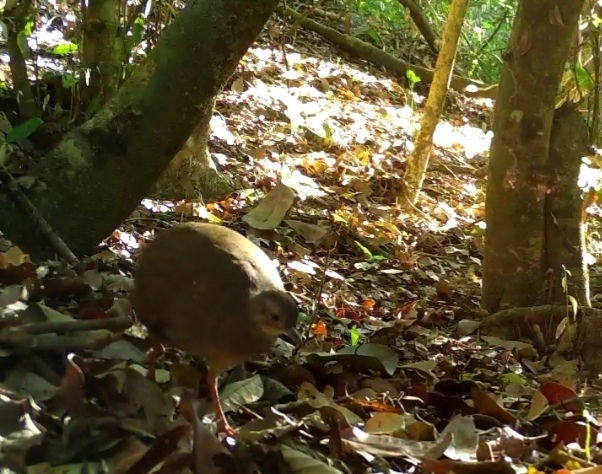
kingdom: Animalia
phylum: Chordata
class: Aves
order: Tinamiformes
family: Tinamidae
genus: Crypturellus
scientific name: Crypturellus cinnamomeus
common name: Thicket tinamou
